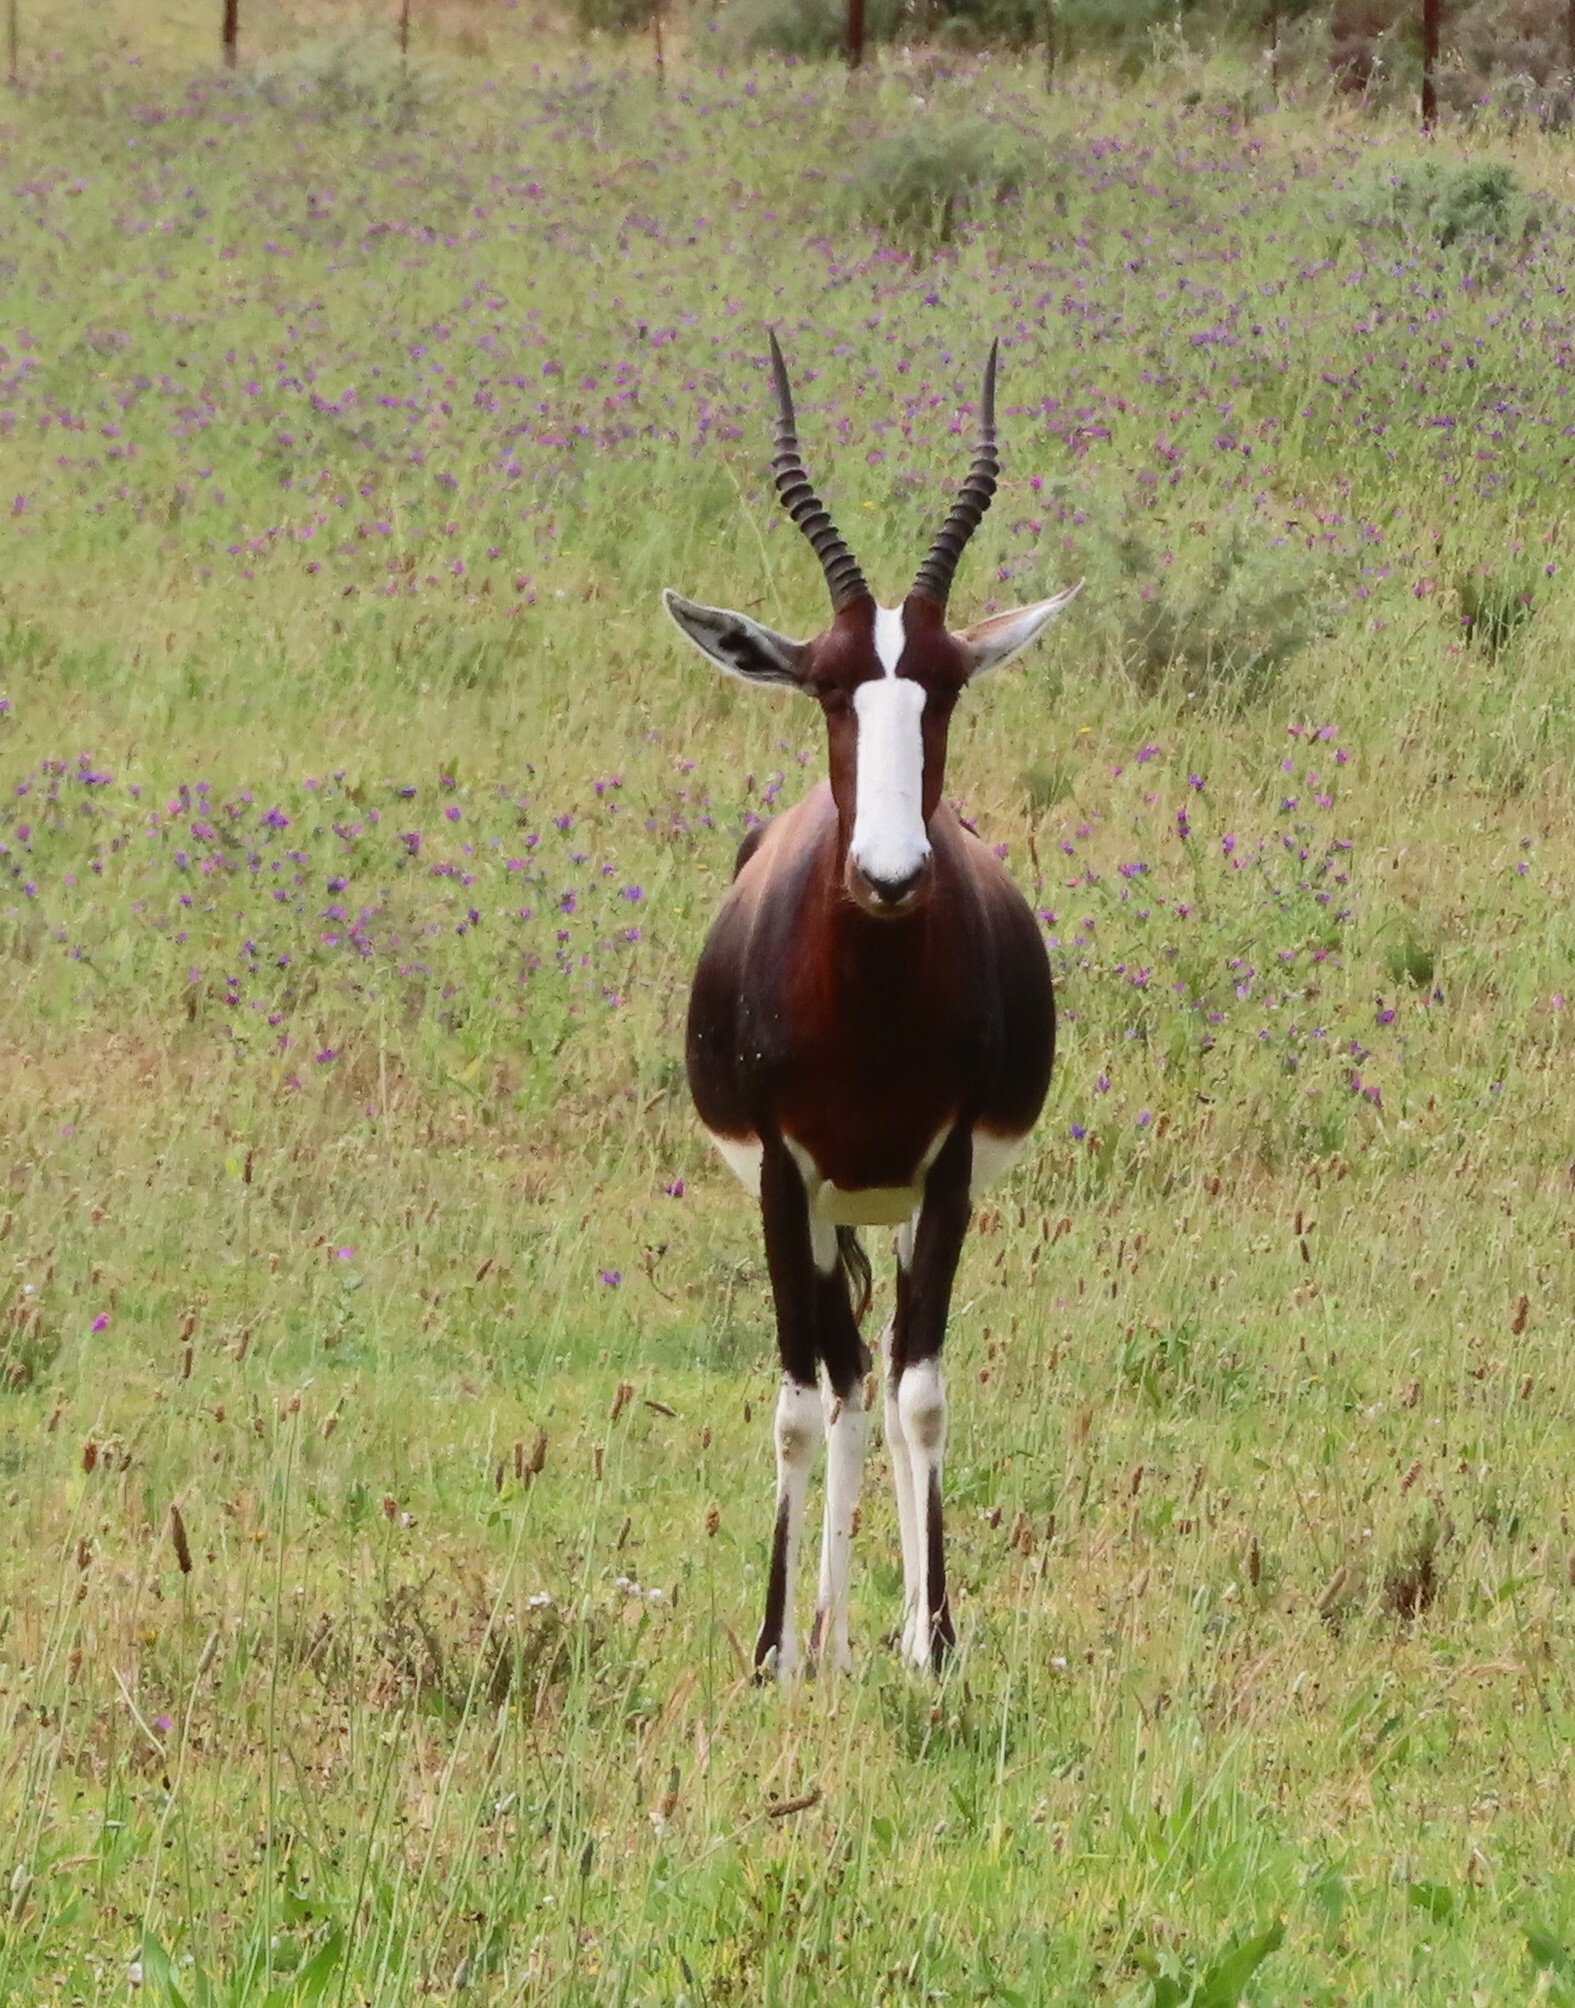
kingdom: Animalia
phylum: Chordata
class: Mammalia
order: Artiodactyla
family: Bovidae
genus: Damaliscus
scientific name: Damaliscus pygargus
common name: Bontebok
